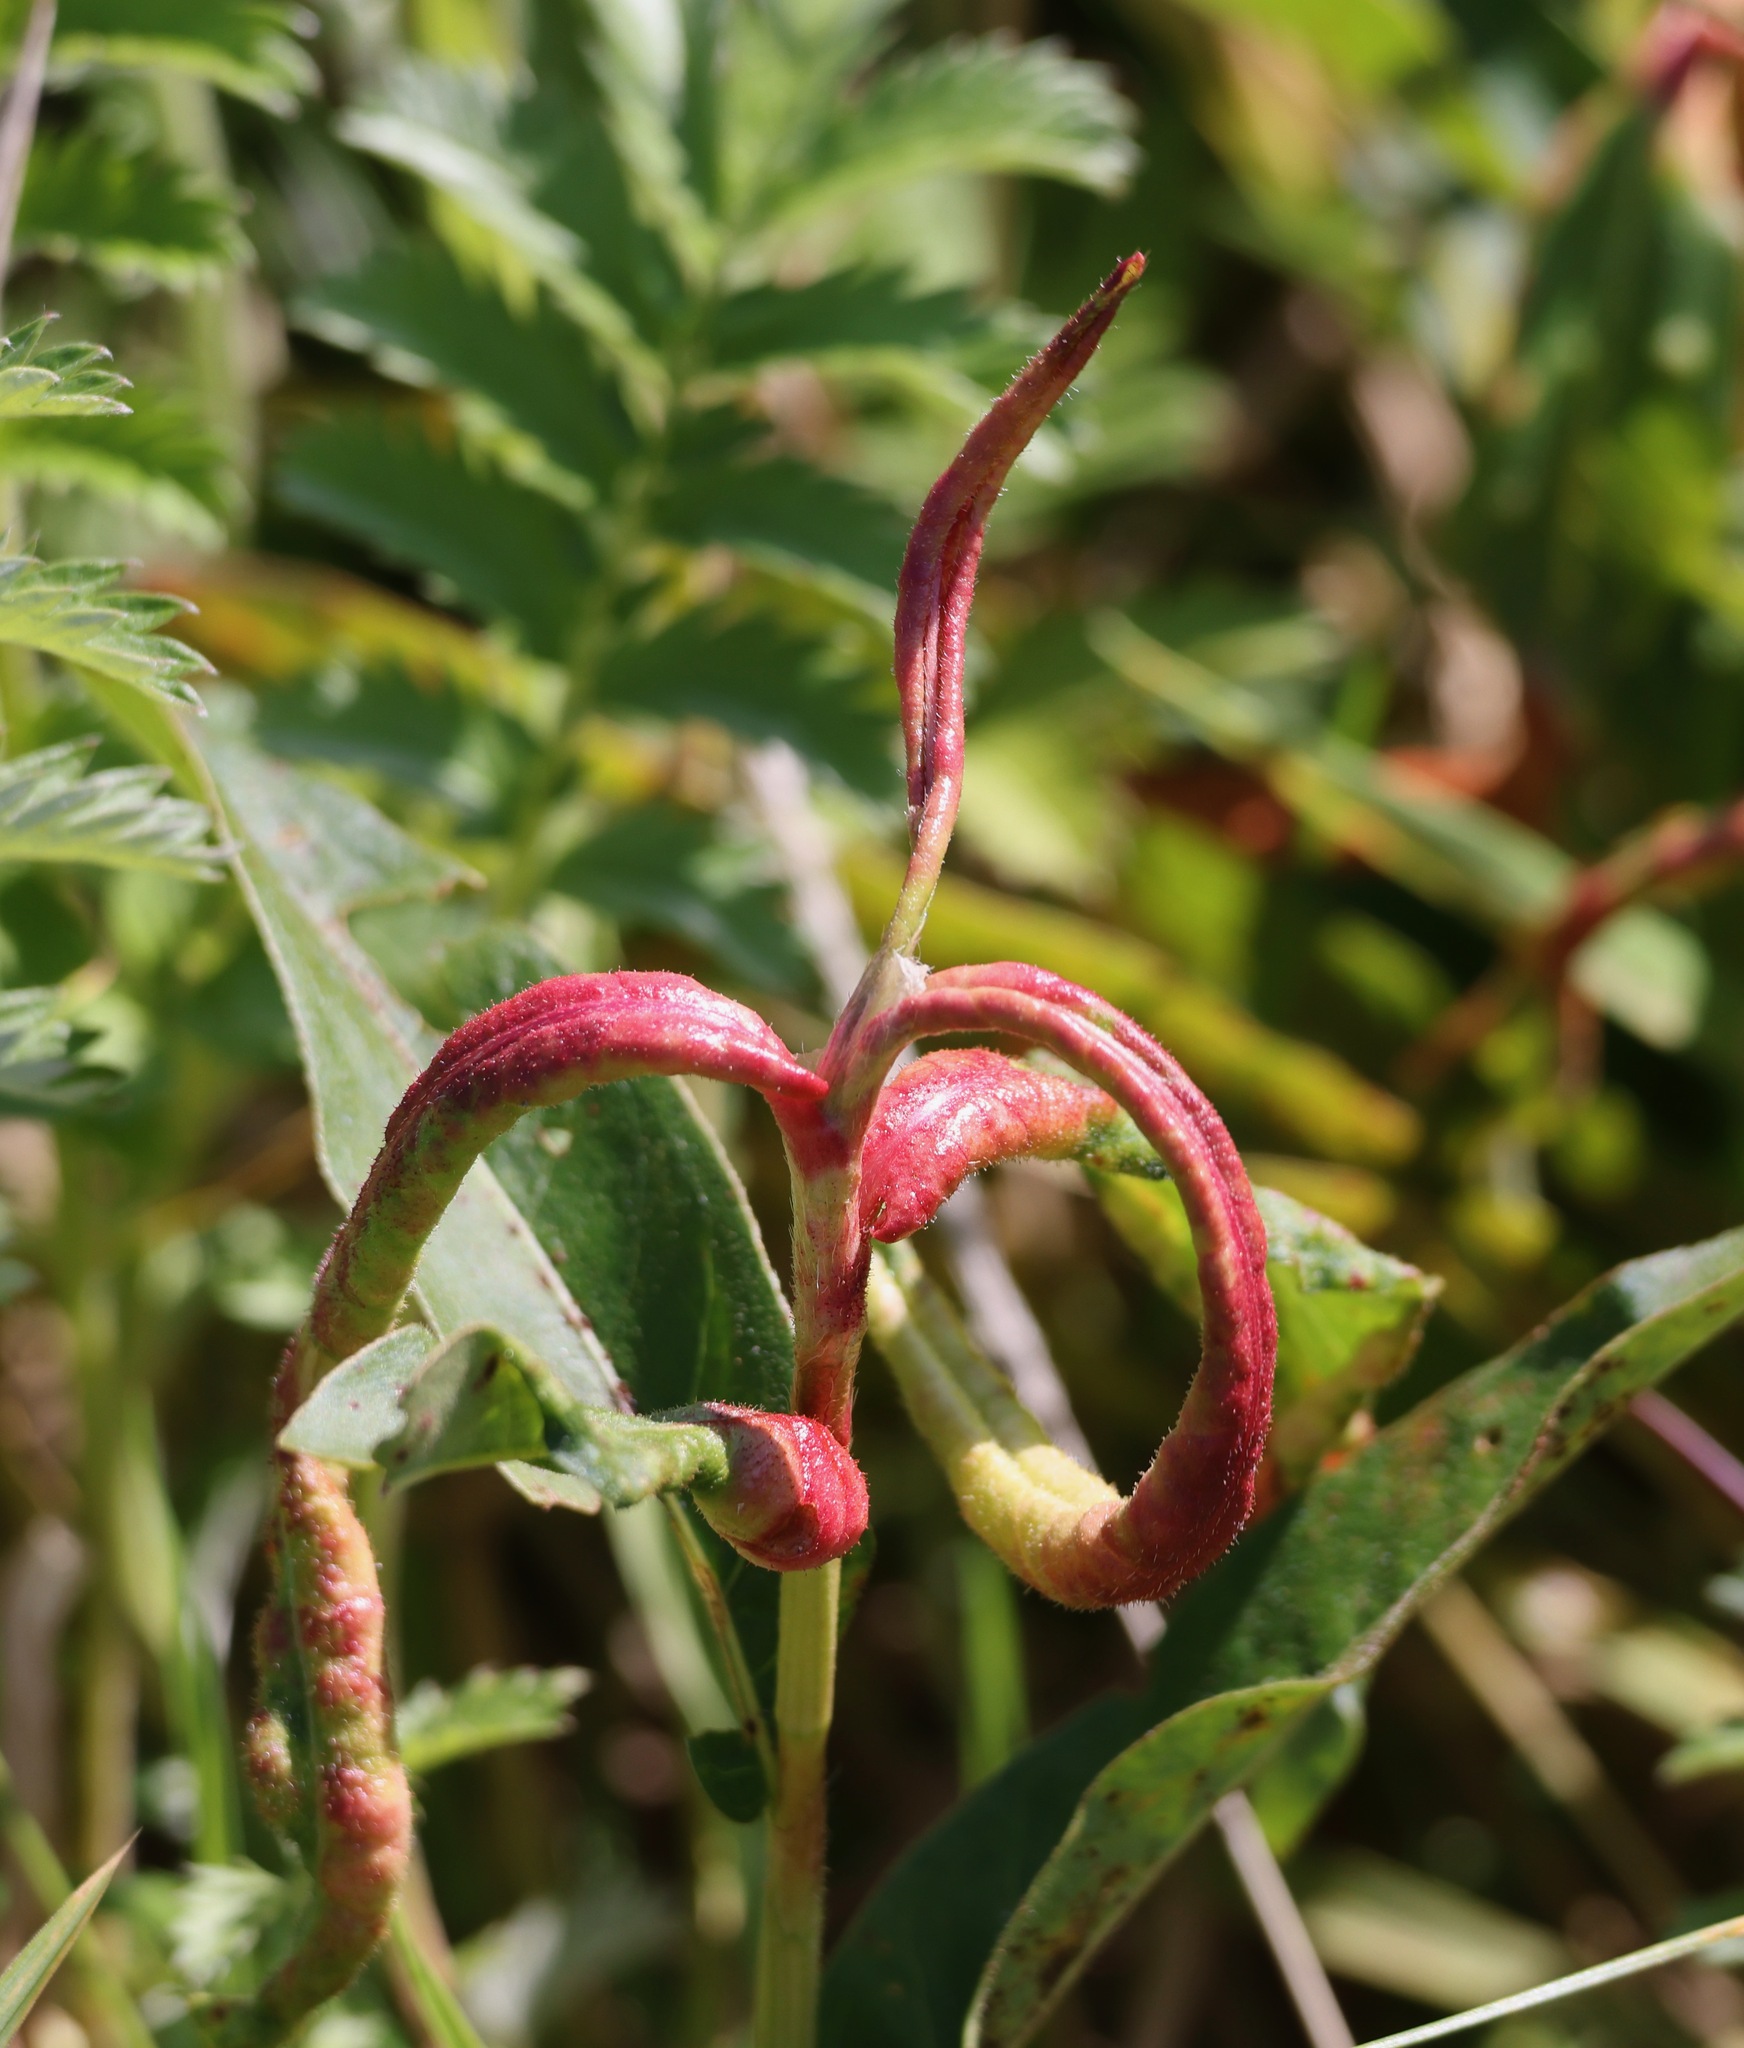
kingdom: Animalia
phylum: Arthropoda
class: Insecta
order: Diptera
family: Cecidomyiidae
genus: Wachtliella
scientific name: Wachtliella persicariae
